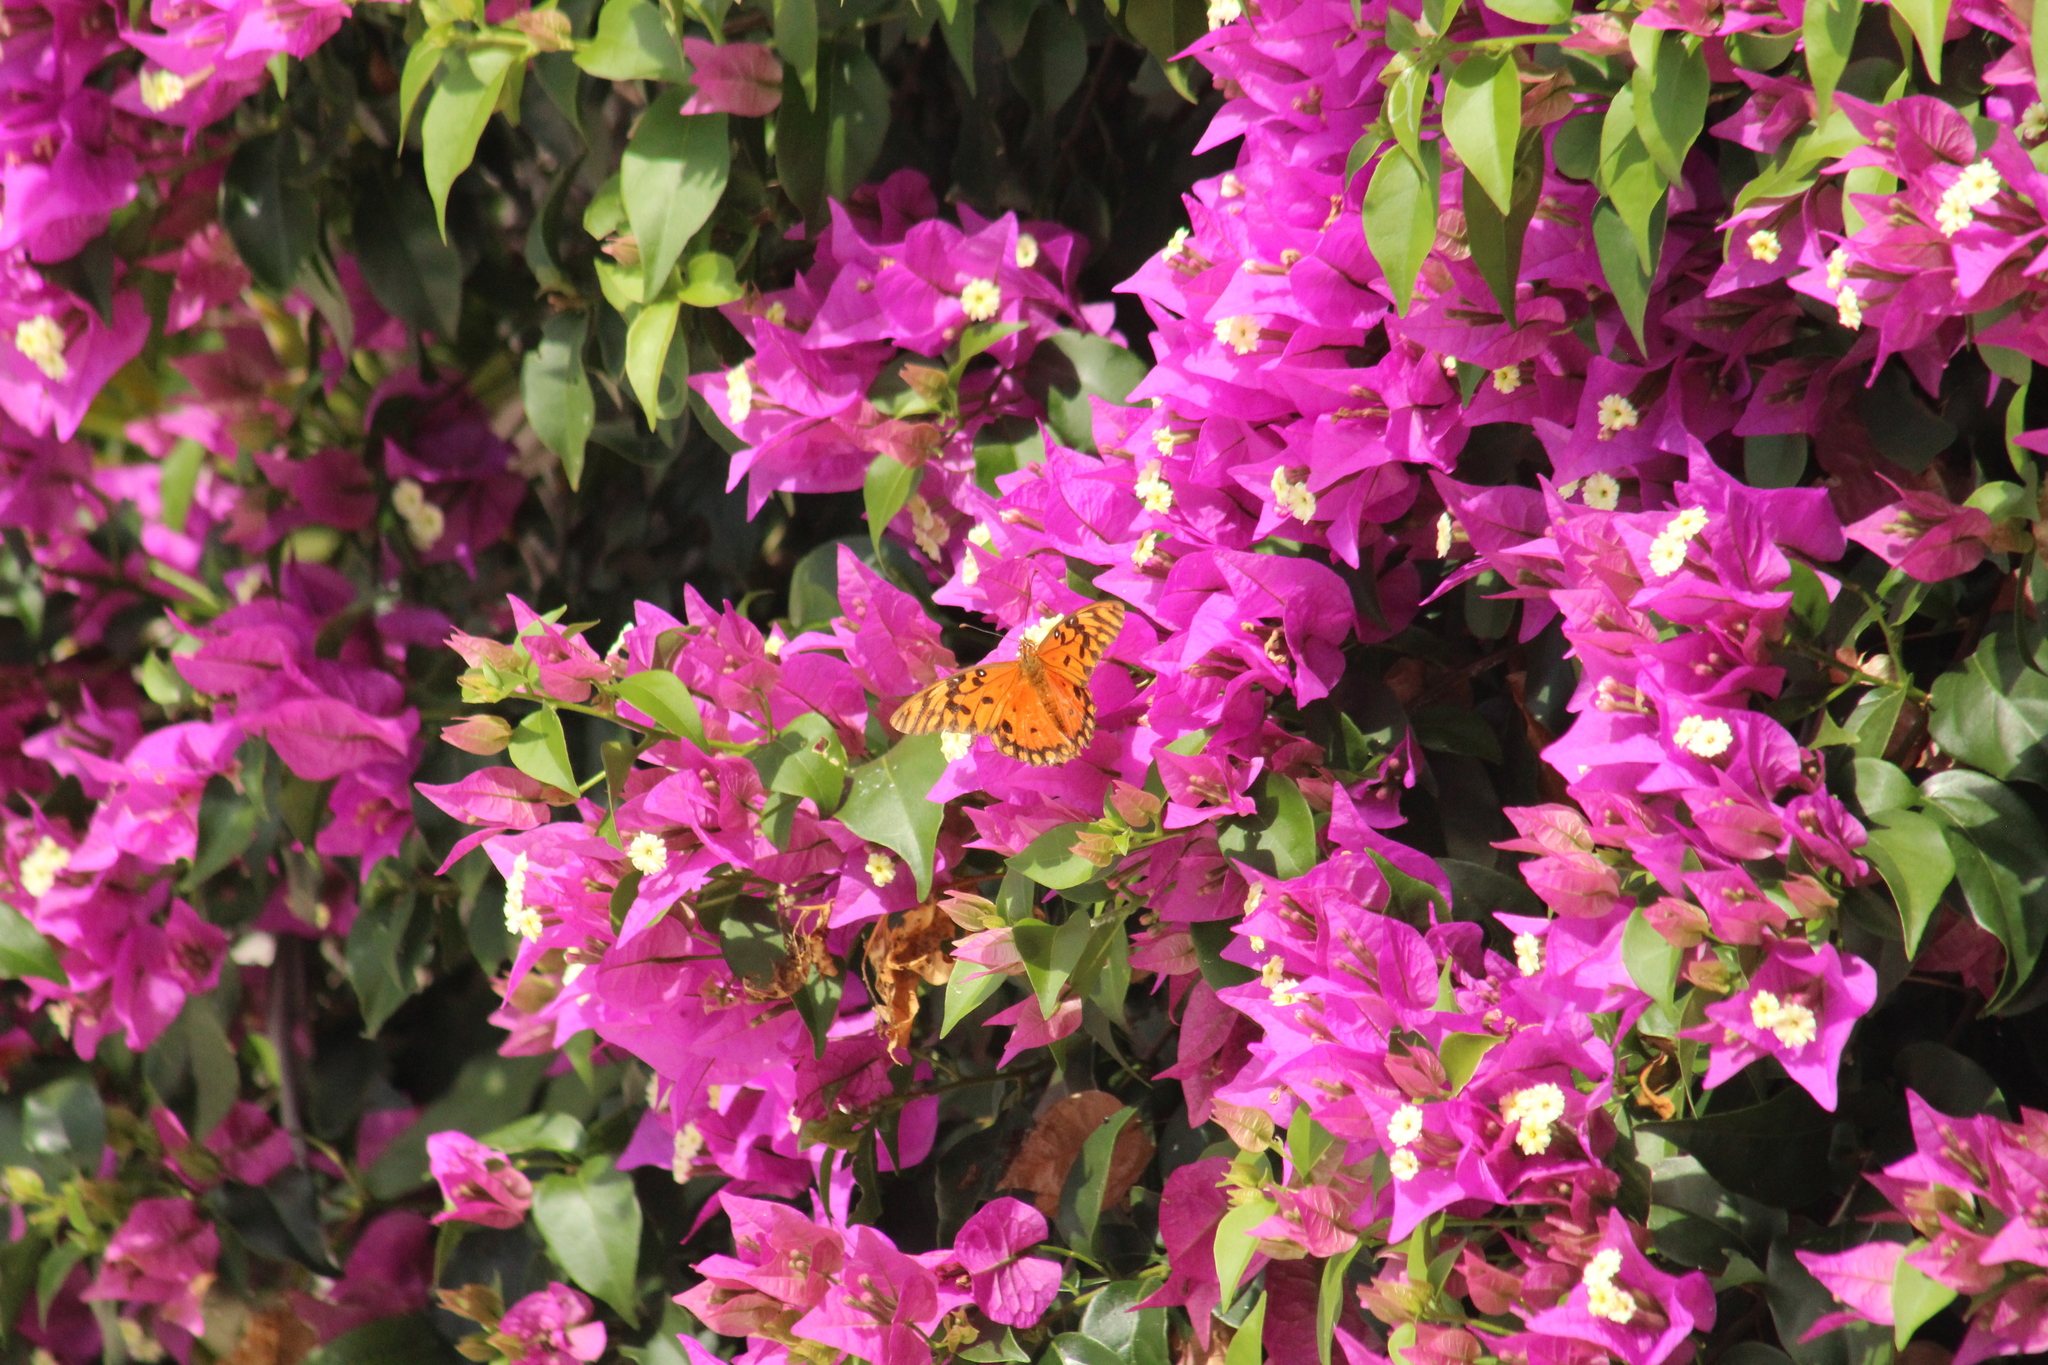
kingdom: Animalia
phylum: Arthropoda
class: Insecta
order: Lepidoptera
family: Nymphalidae
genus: Dione
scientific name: Dione vanillae
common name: Gulf fritillary
